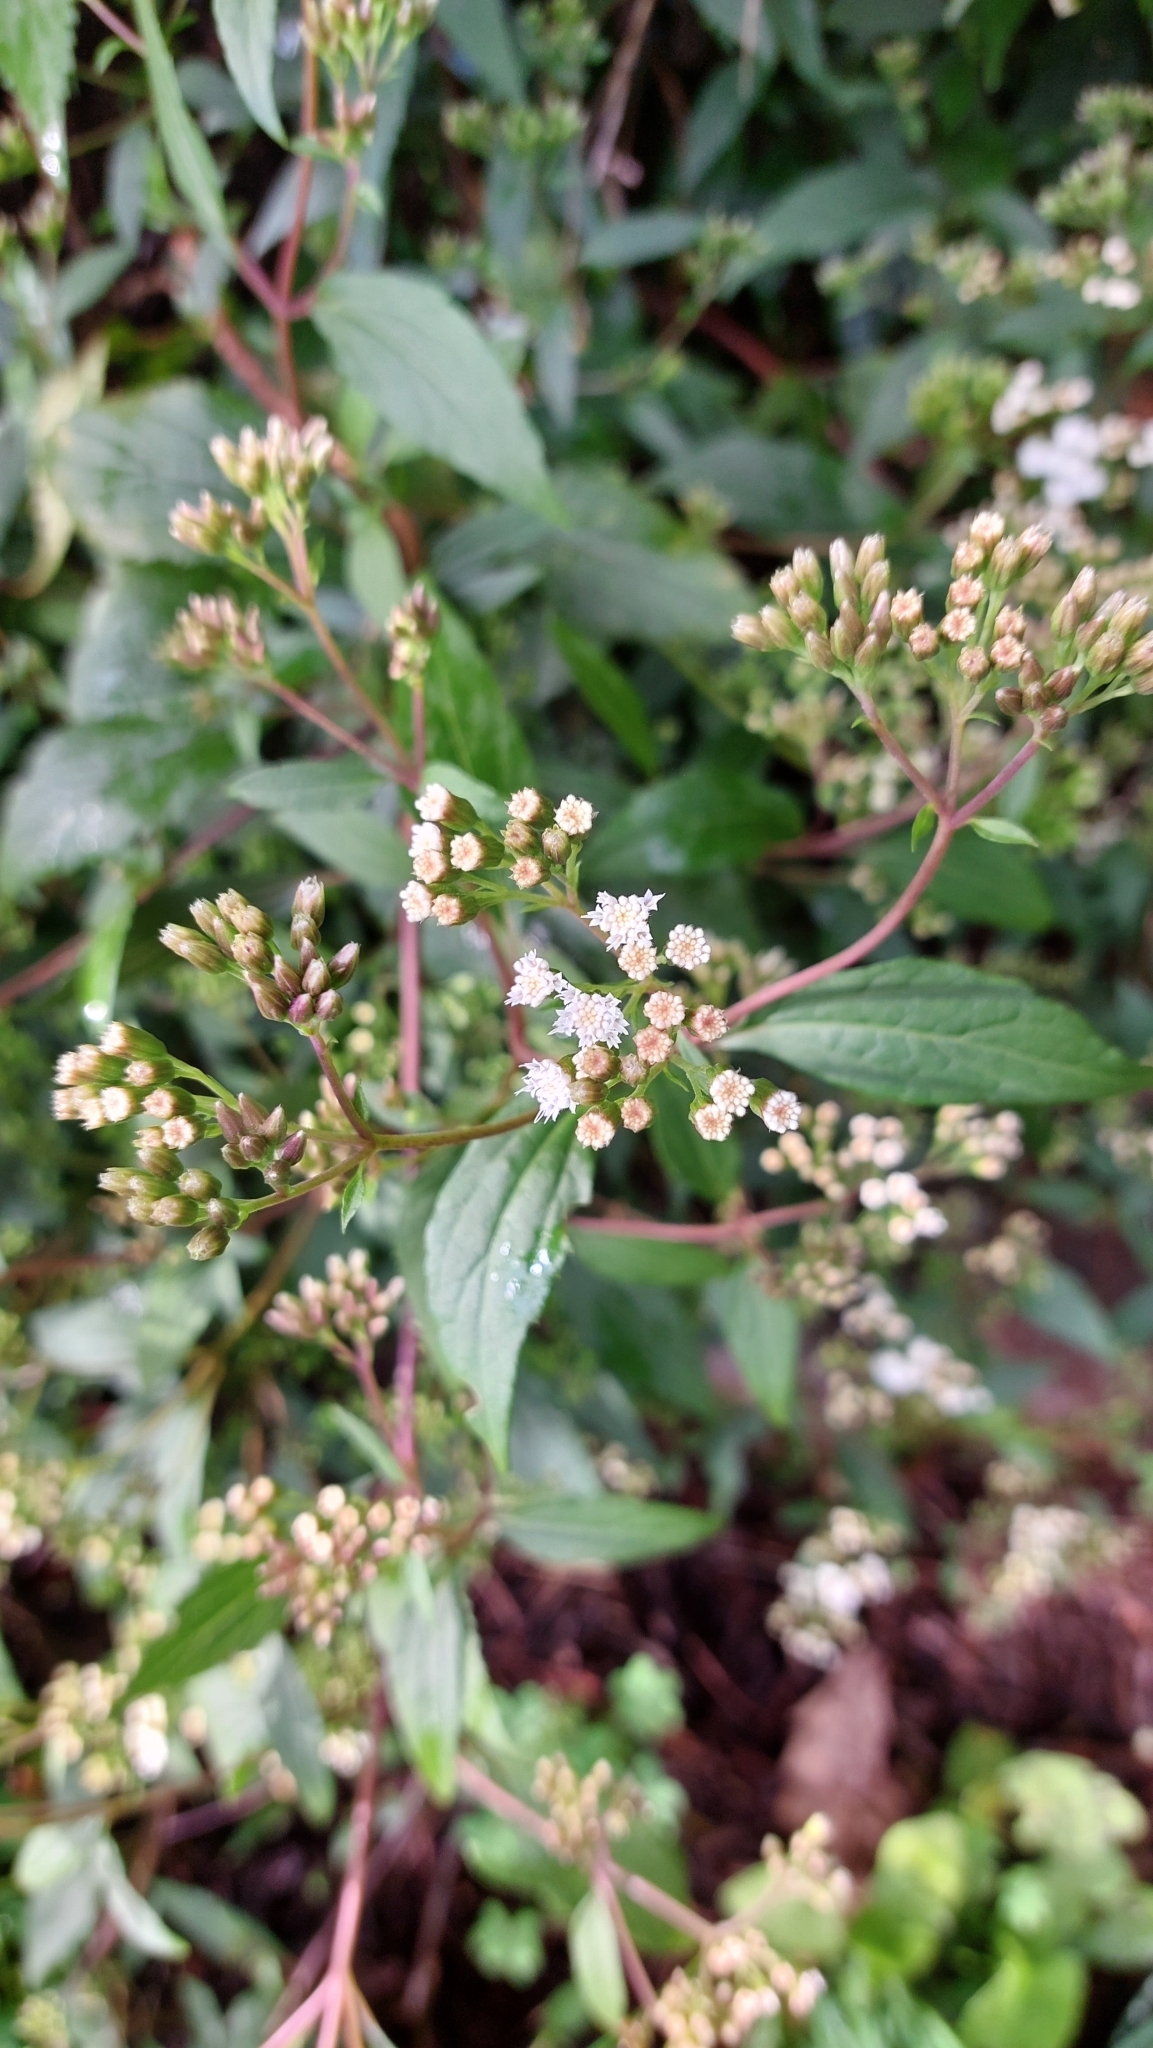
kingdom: Plantae
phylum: Tracheophyta
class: Magnoliopsida
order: Asterales
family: Asteraceae
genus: Ageratina
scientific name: Ageratina riparia
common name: Creeping croftonweed
